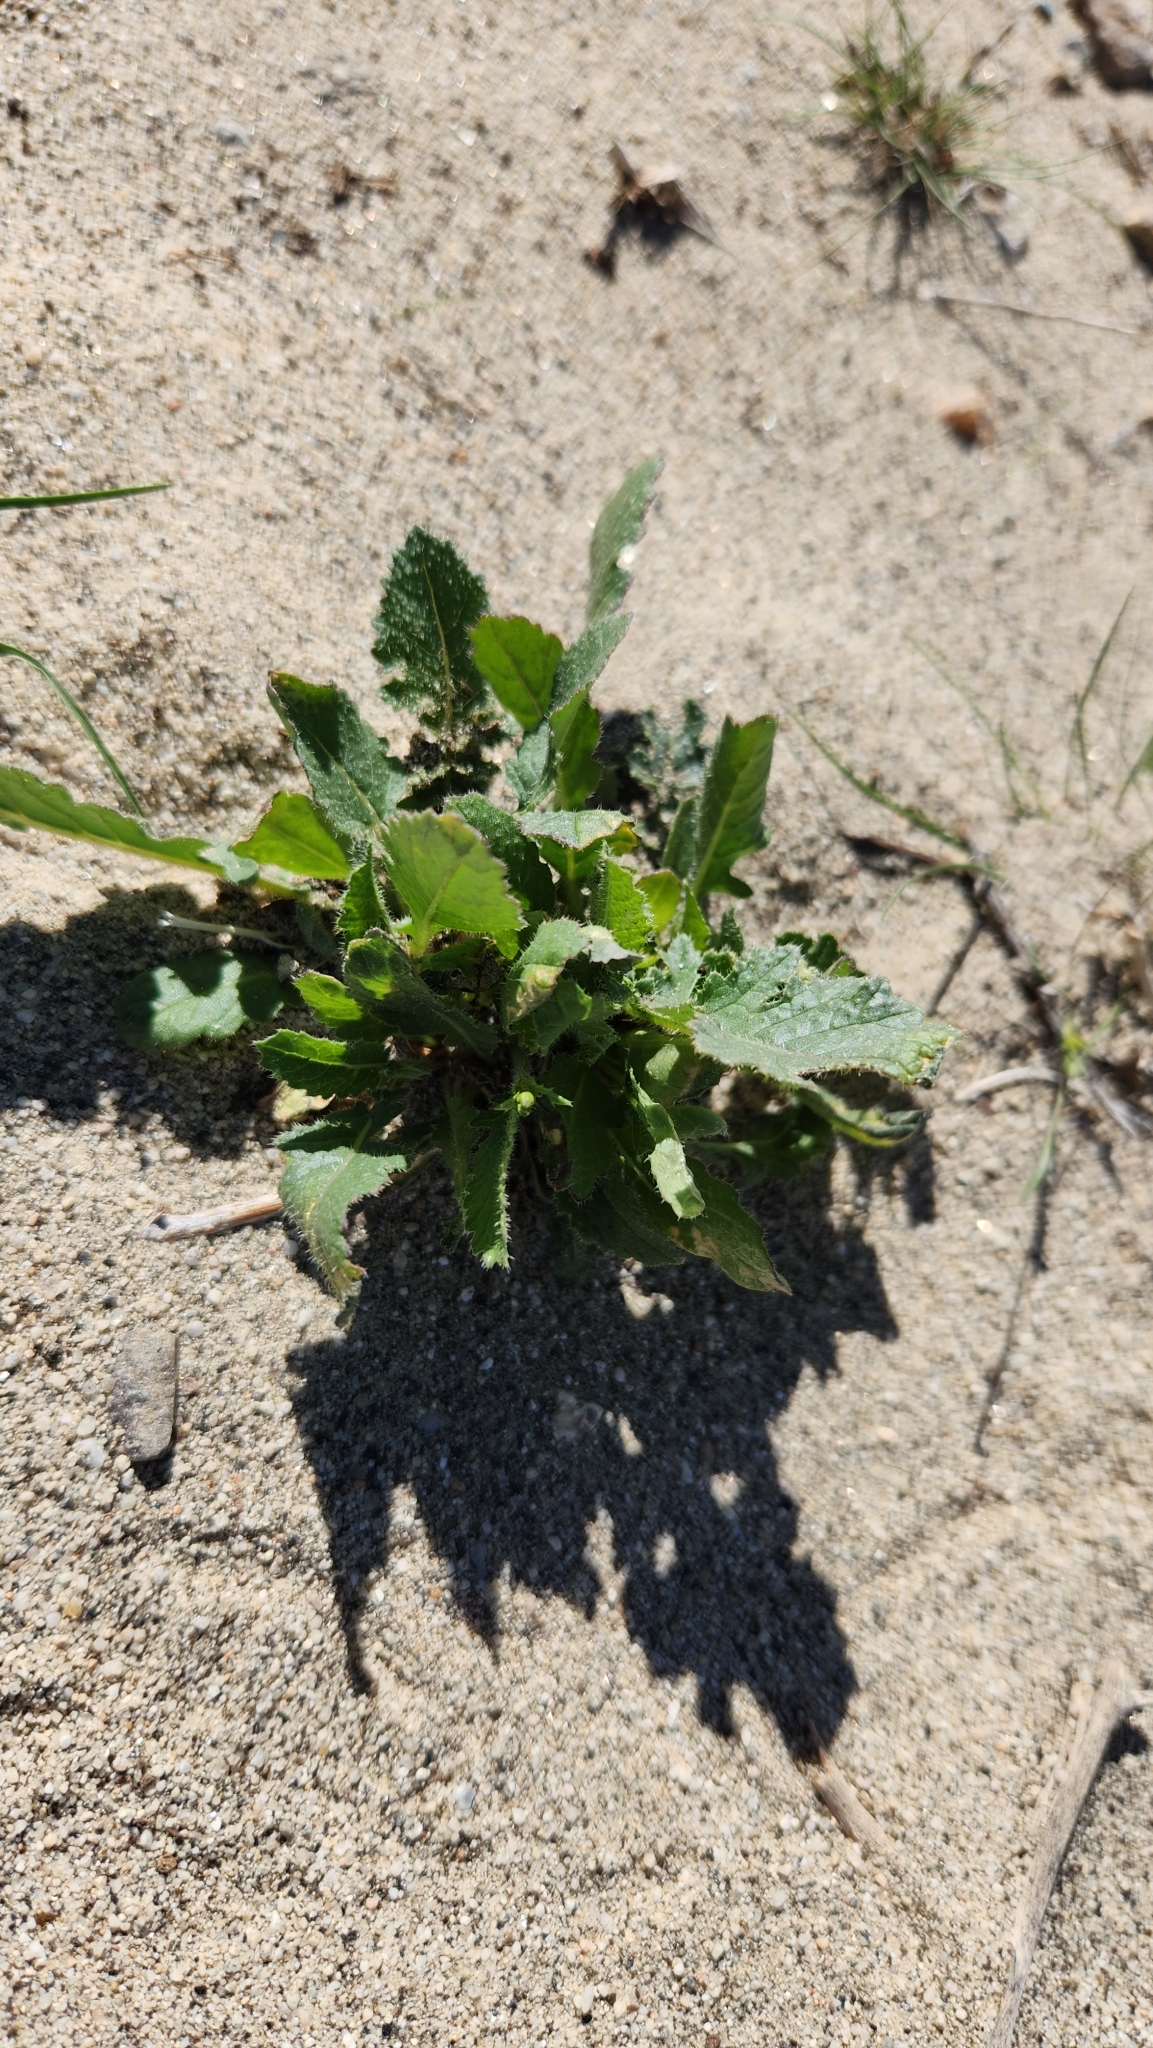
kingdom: Plantae
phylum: Tracheophyta
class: Magnoliopsida
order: Brassicales
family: Brassicaceae
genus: Brassica
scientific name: Brassica tournefortii
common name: Pale cabbage
